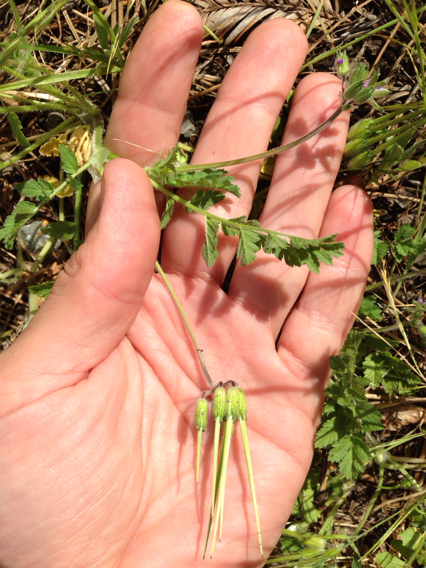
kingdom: Plantae
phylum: Tracheophyta
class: Magnoliopsida
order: Geraniales
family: Geraniaceae
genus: Erodium
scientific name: Erodium moschatum
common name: Musk stork's-bill
